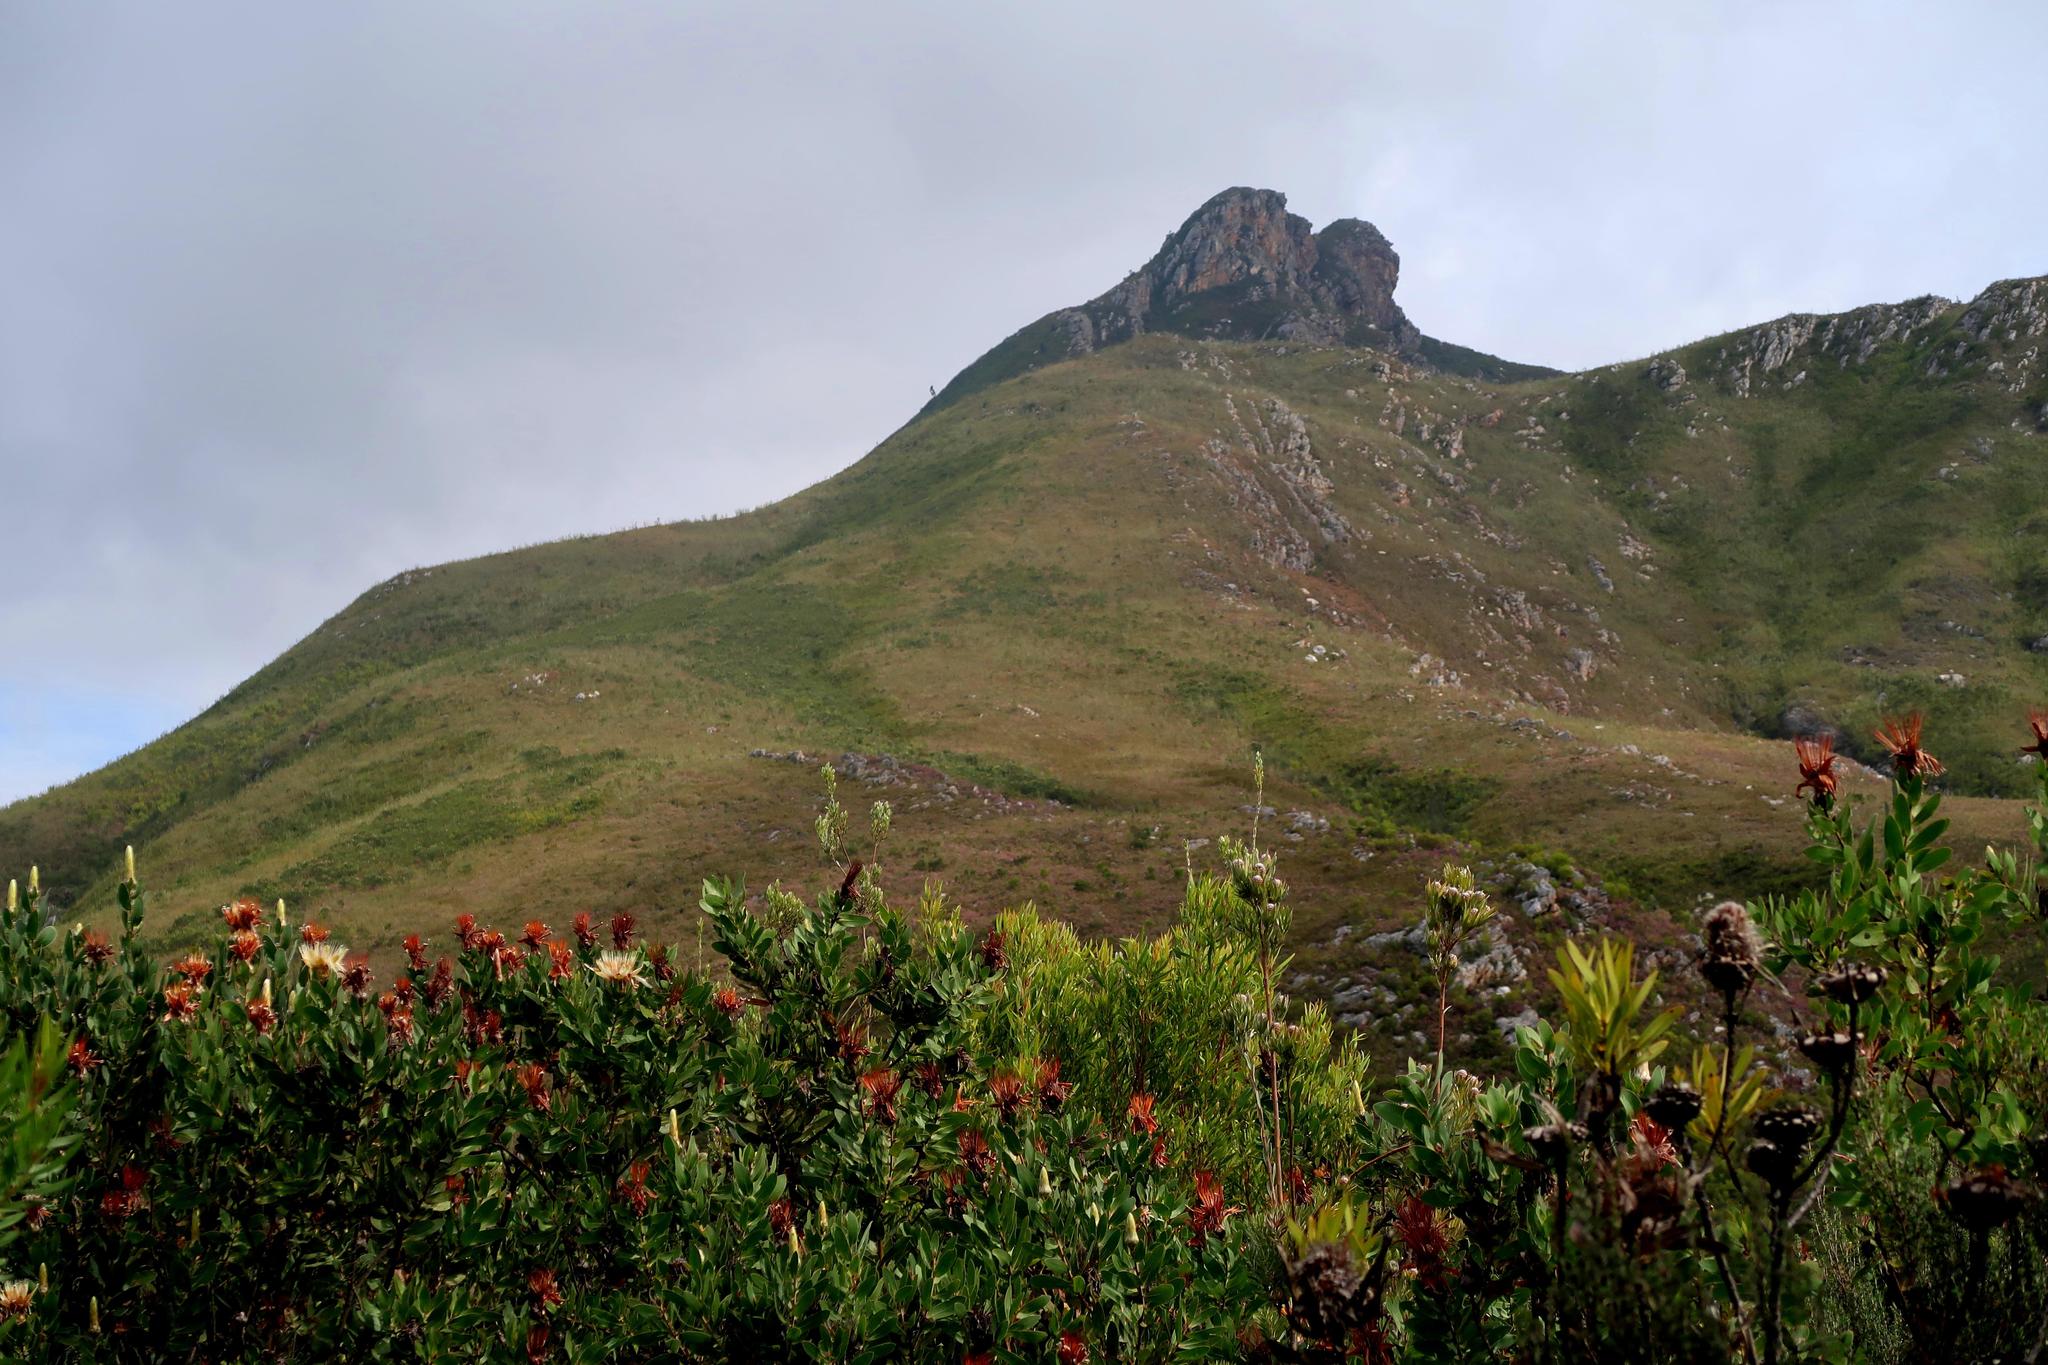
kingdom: Plantae
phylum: Tracheophyta
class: Magnoliopsida
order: Proteales
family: Proteaceae
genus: Protea
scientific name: Protea aurea
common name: Shuttlecock sugarbush
